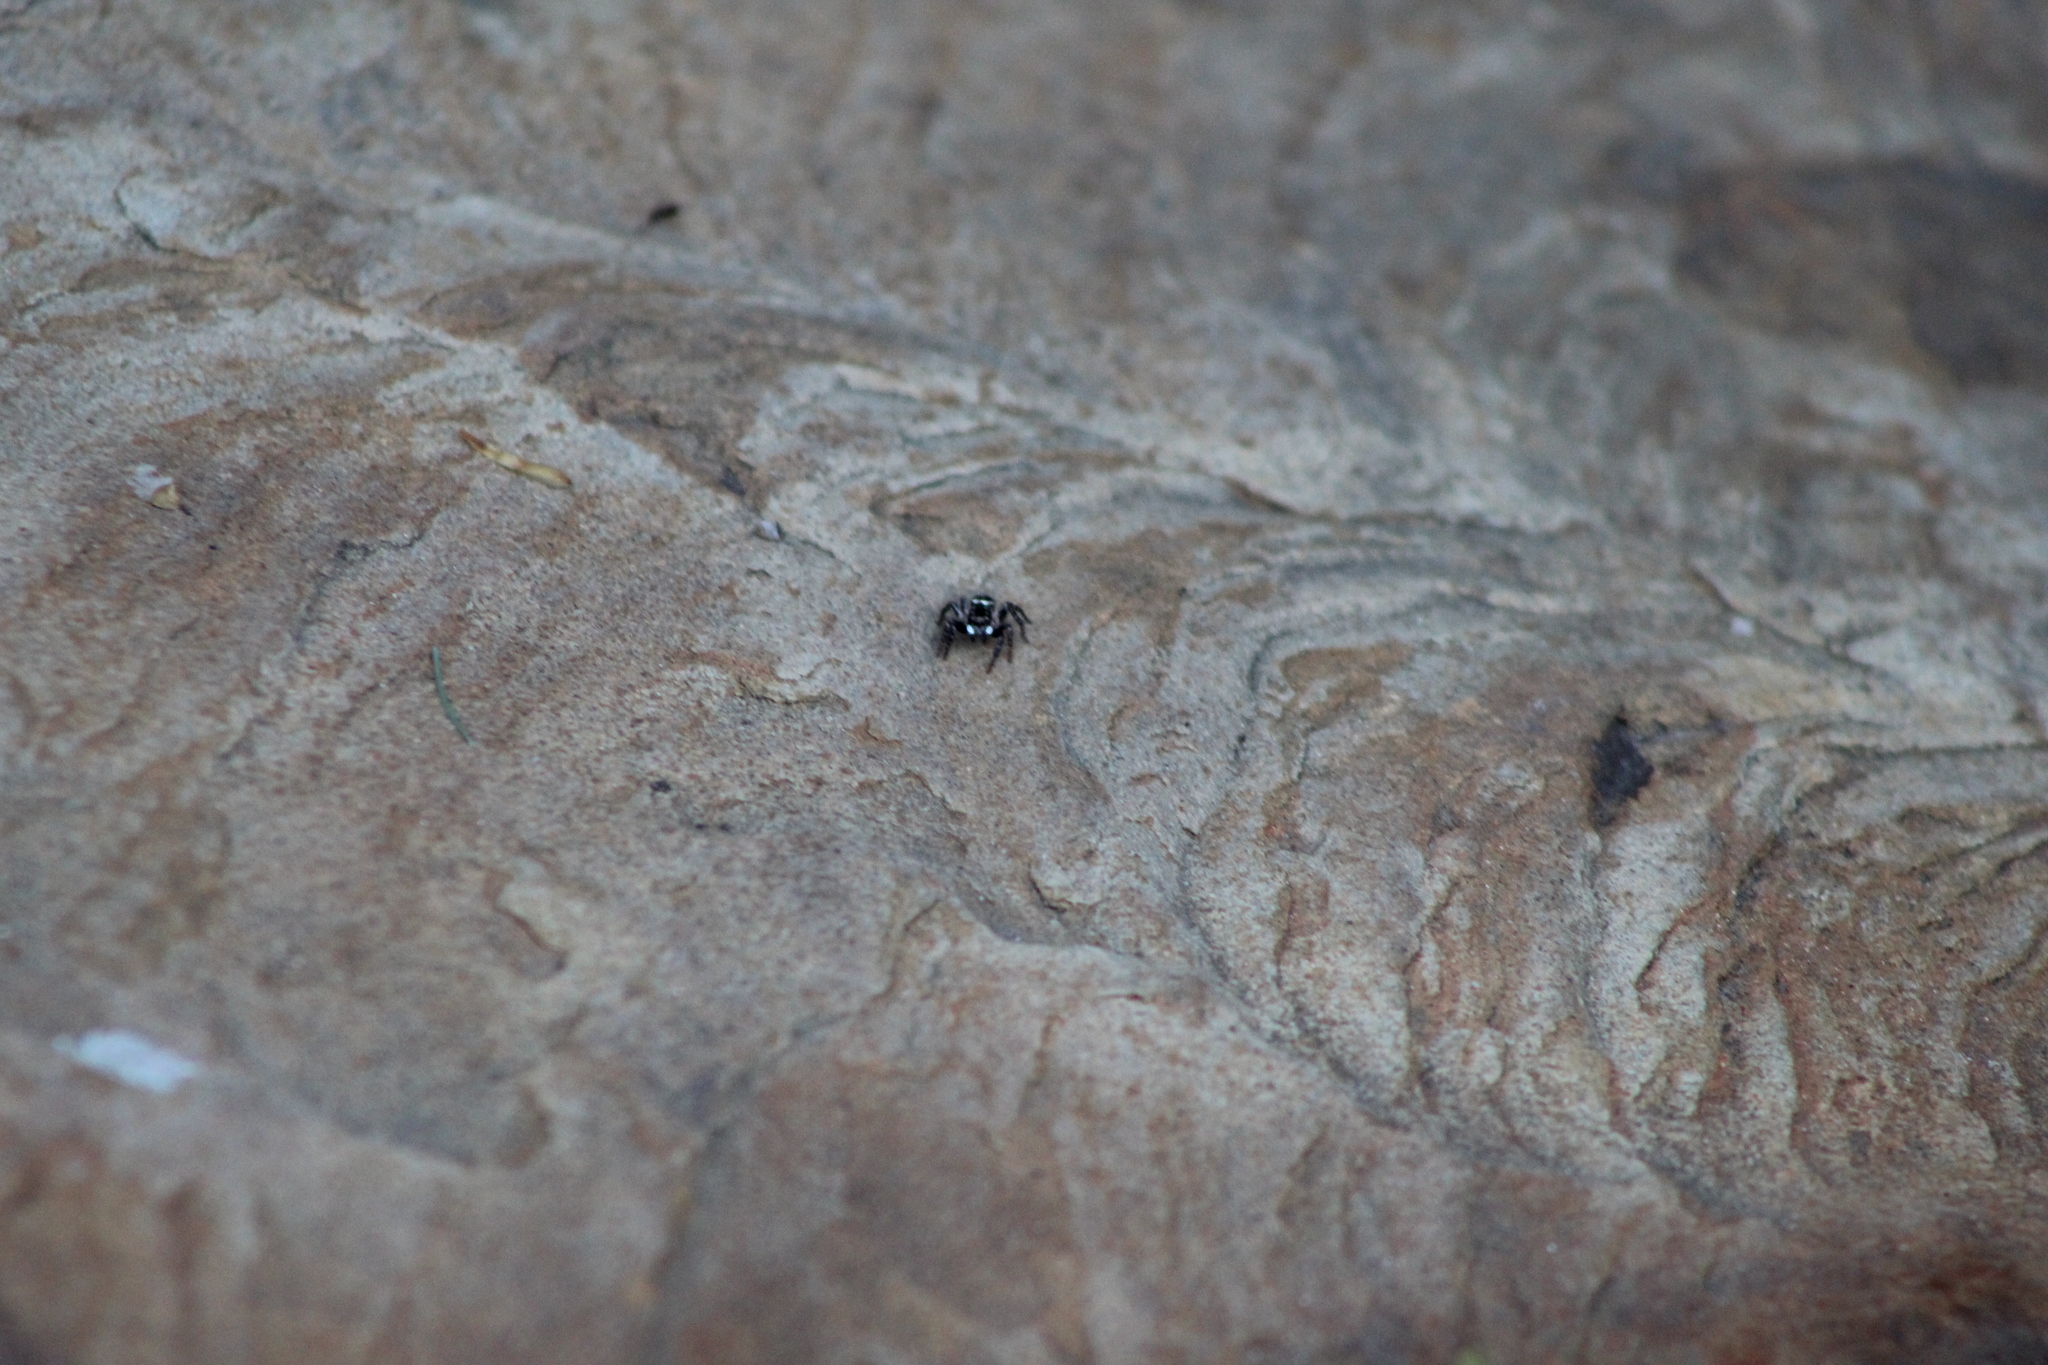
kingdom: Animalia
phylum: Arthropoda
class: Arachnida
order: Araneae
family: Salticidae
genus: Anasaitis
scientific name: Anasaitis canosa
